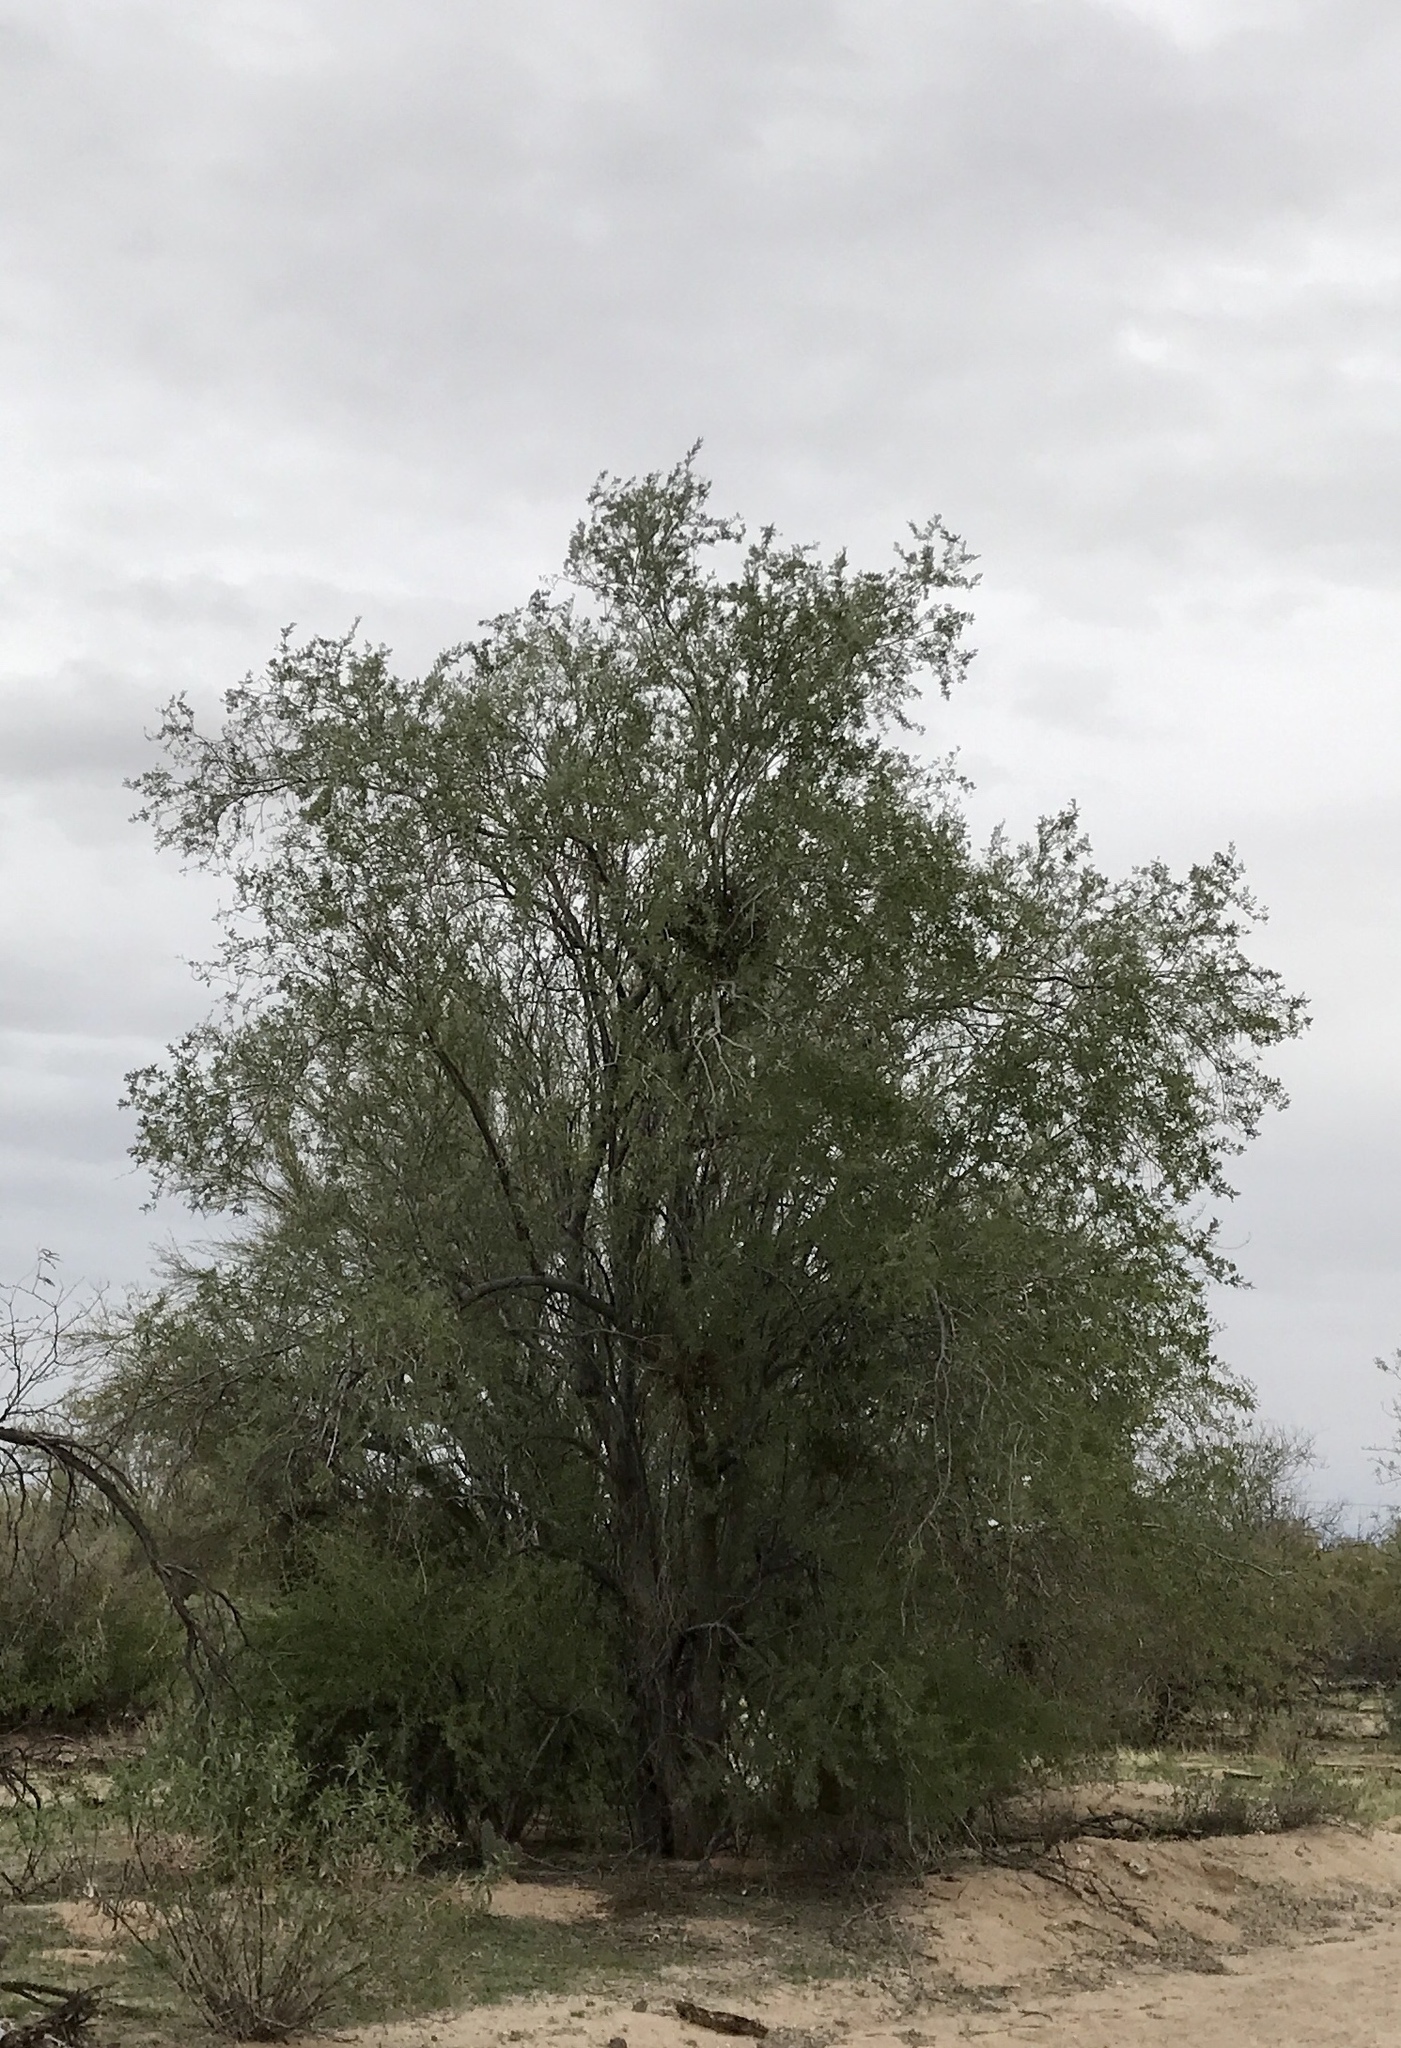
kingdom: Plantae
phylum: Tracheophyta
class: Magnoliopsida
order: Fabales
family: Fabaceae
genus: Olneya
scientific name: Olneya tesota
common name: Desert ironwood
